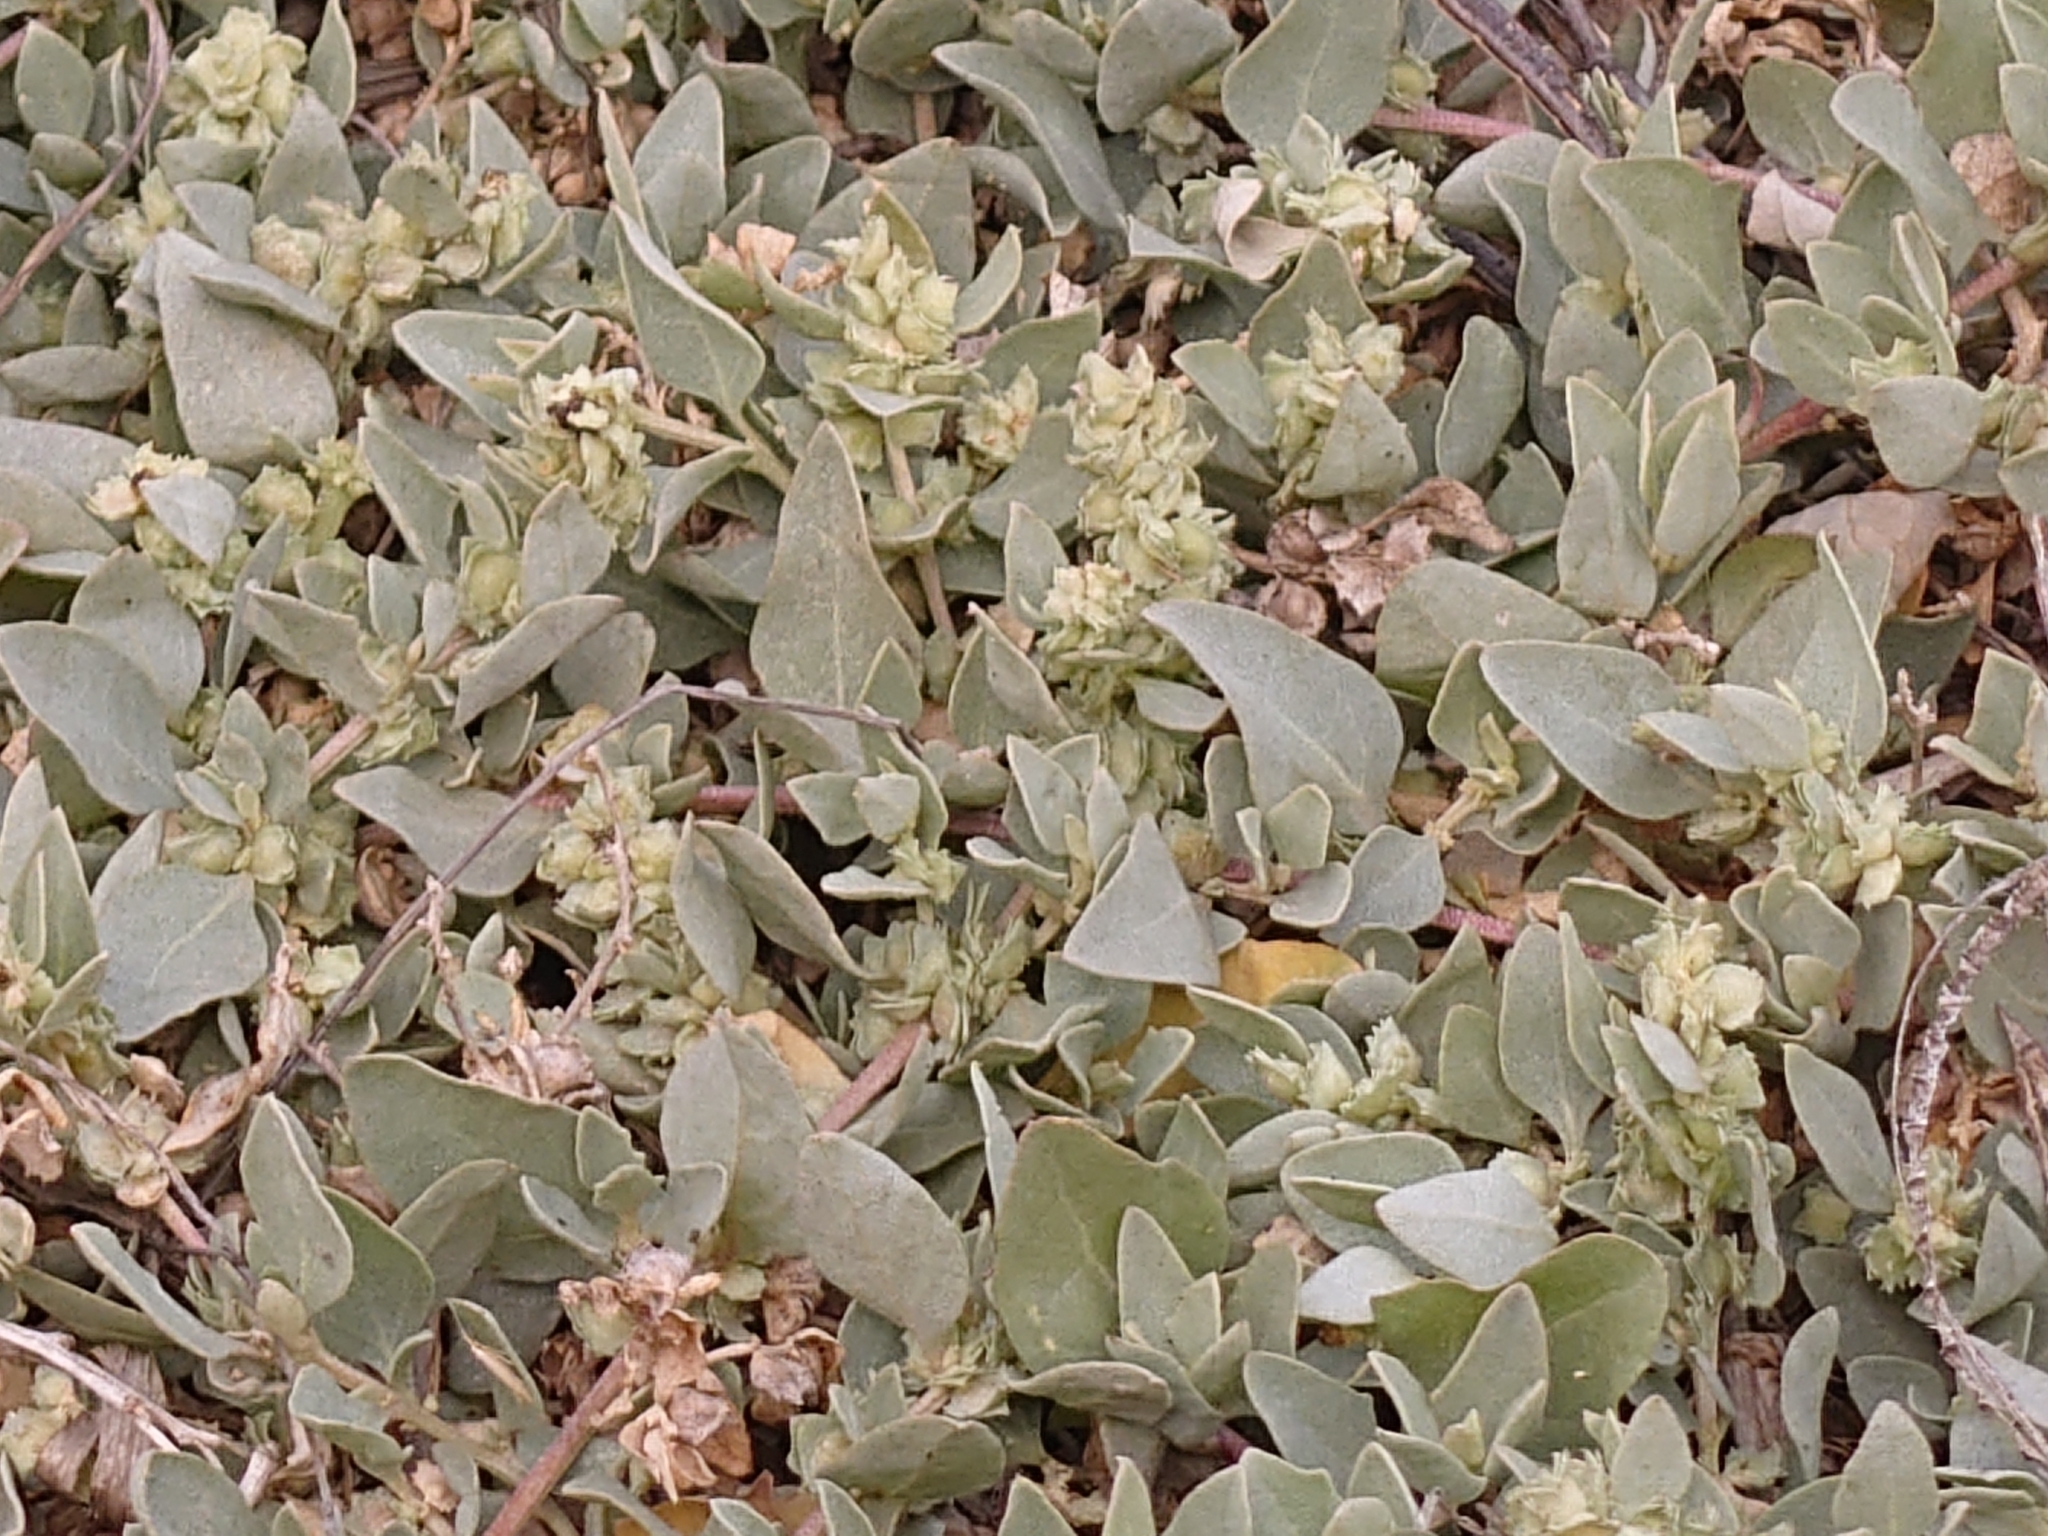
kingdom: Plantae
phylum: Tracheophyta
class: Magnoliopsida
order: Caryophyllales
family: Amaranthaceae
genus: Atriplex
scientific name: Atriplex maximowicziana
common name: Maximowicz's saltbush
